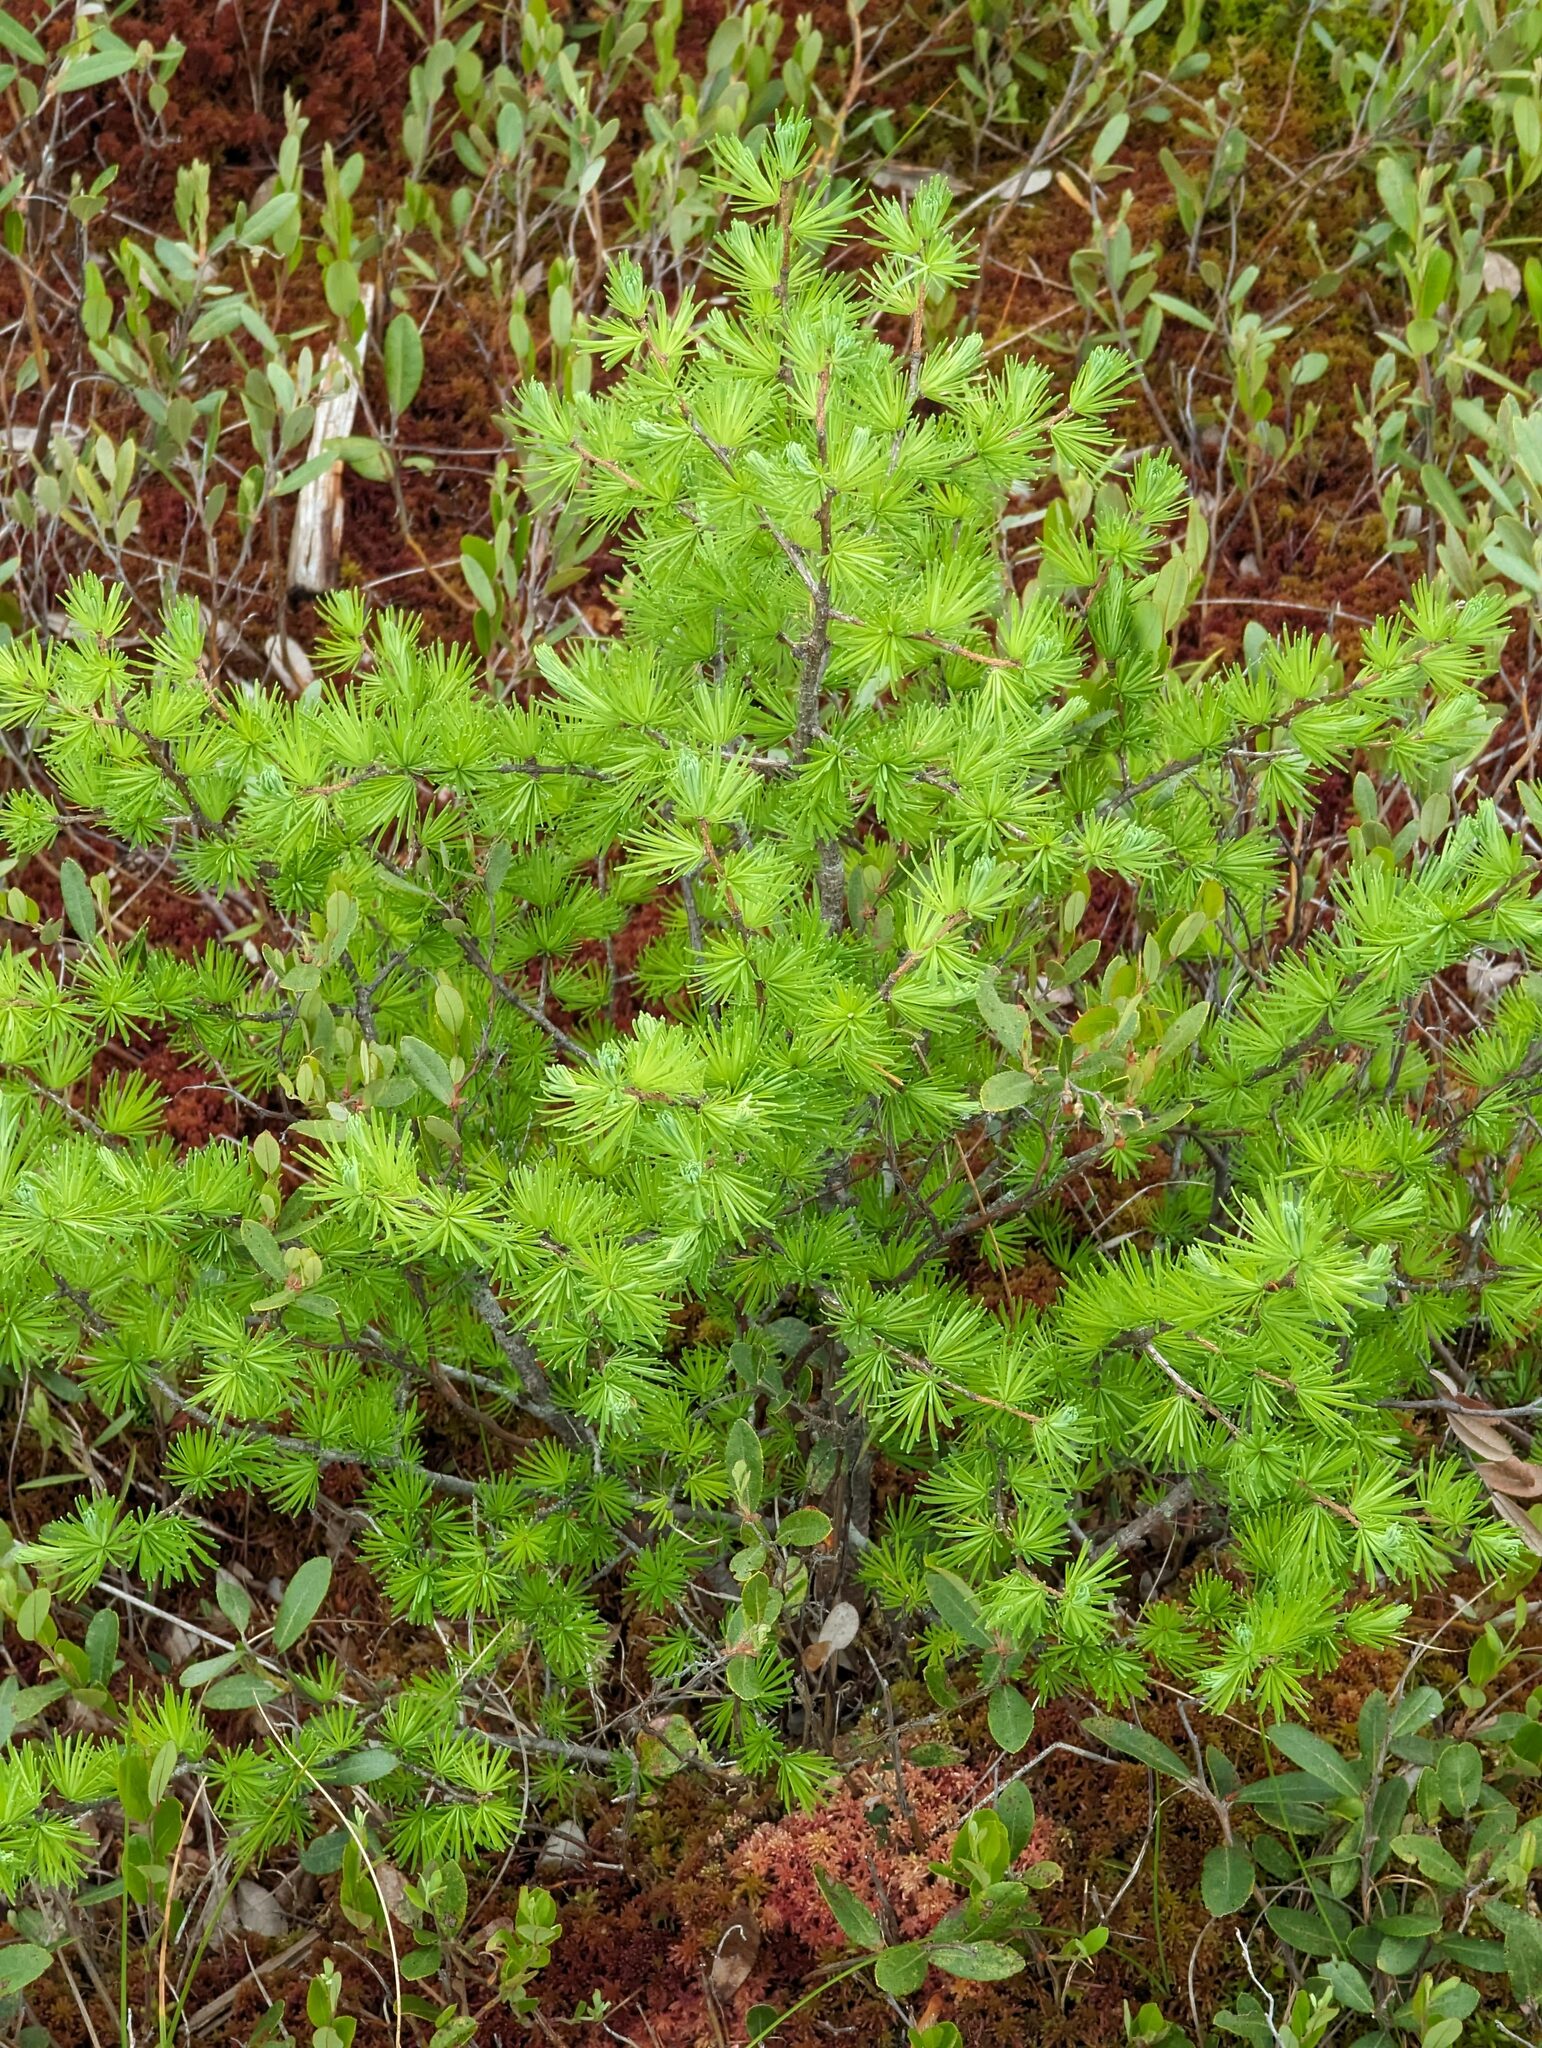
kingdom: Plantae
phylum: Tracheophyta
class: Pinopsida
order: Pinales
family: Pinaceae
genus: Larix
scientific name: Larix laricina
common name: American larch
